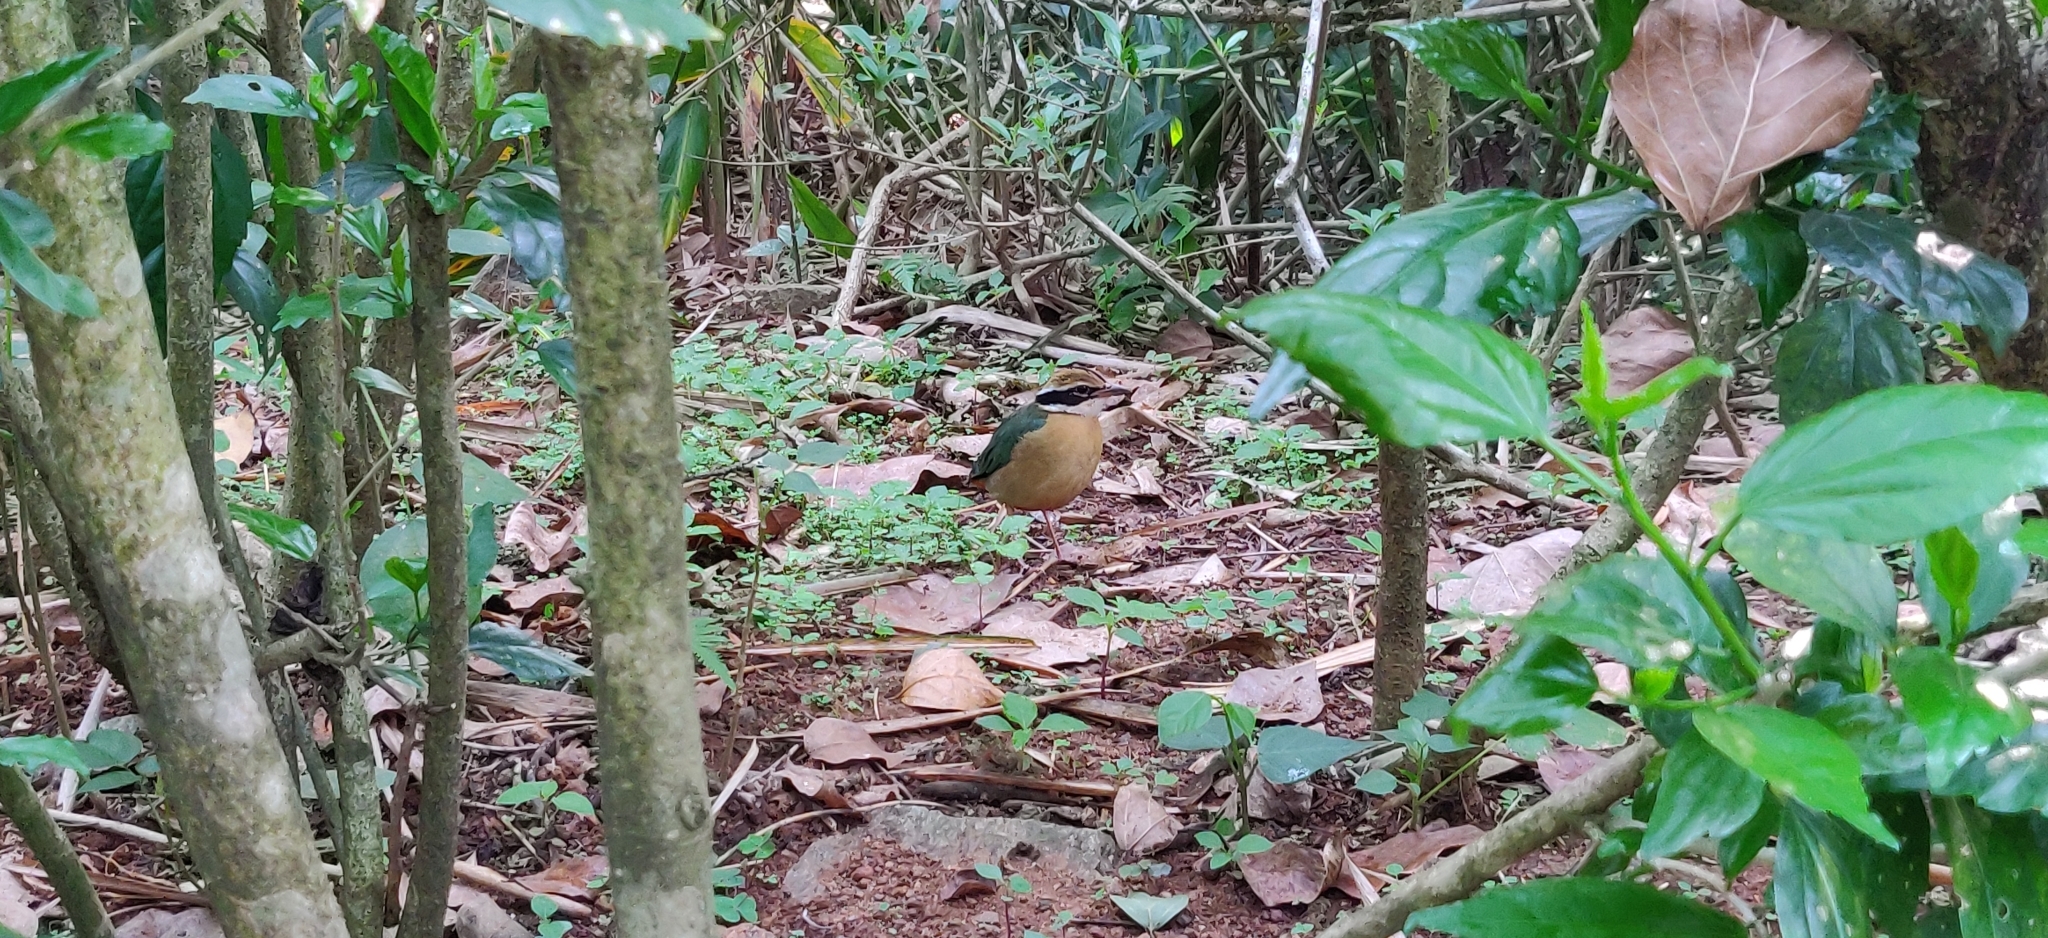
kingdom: Animalia
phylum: Chordata
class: Aves
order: Passeriformes
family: Pittidae
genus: Pitta
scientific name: Pitta brachyura
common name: Indian pitta
